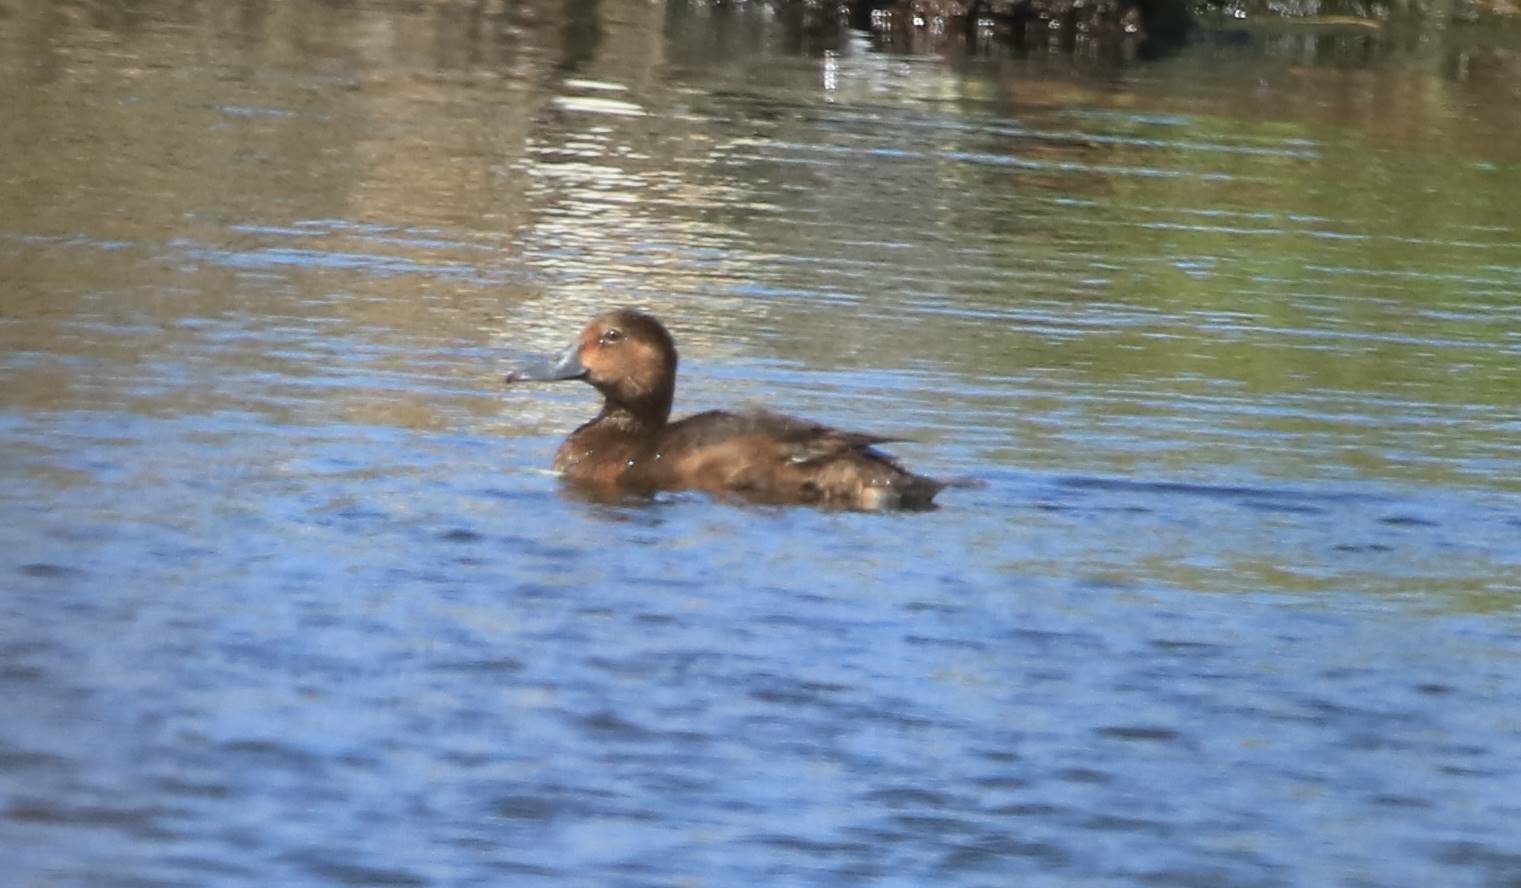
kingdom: Animalia
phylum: Chordata
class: Aves
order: Anseriformes
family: Anatidae
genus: Aythya
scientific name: Aythya nyroca
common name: Ferruginous duck
